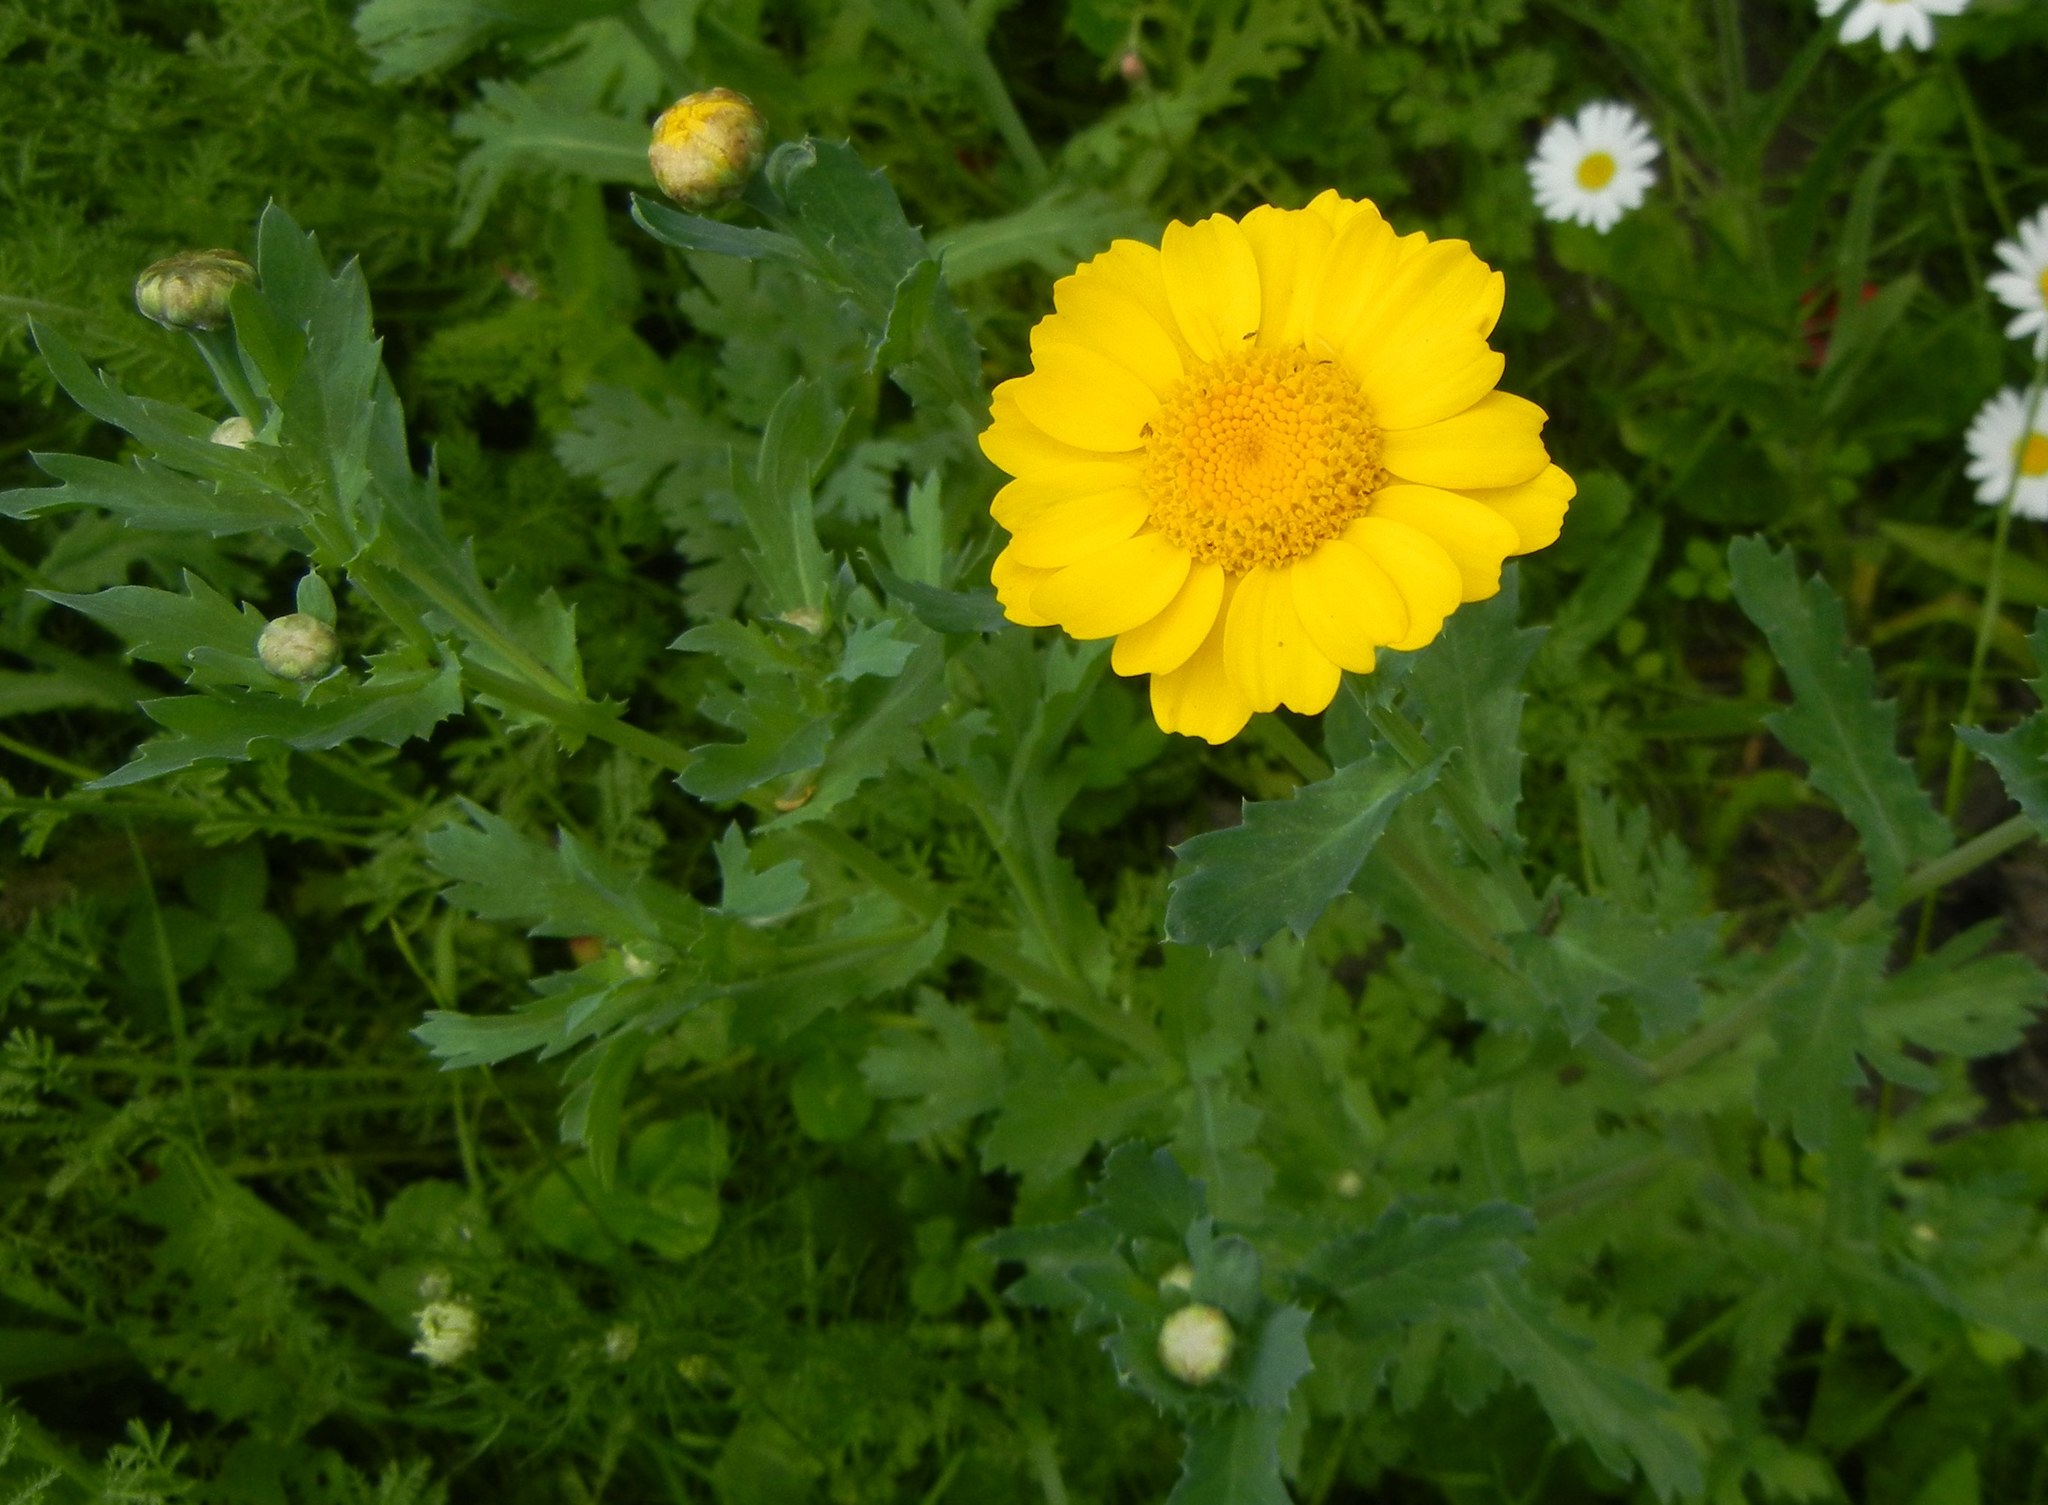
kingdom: Plantae
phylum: Tracheophyta
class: Magnoliopsida
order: Asterales
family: Asteraceae
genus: Glebionis
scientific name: Glebionis segetum
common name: Corndaisy
